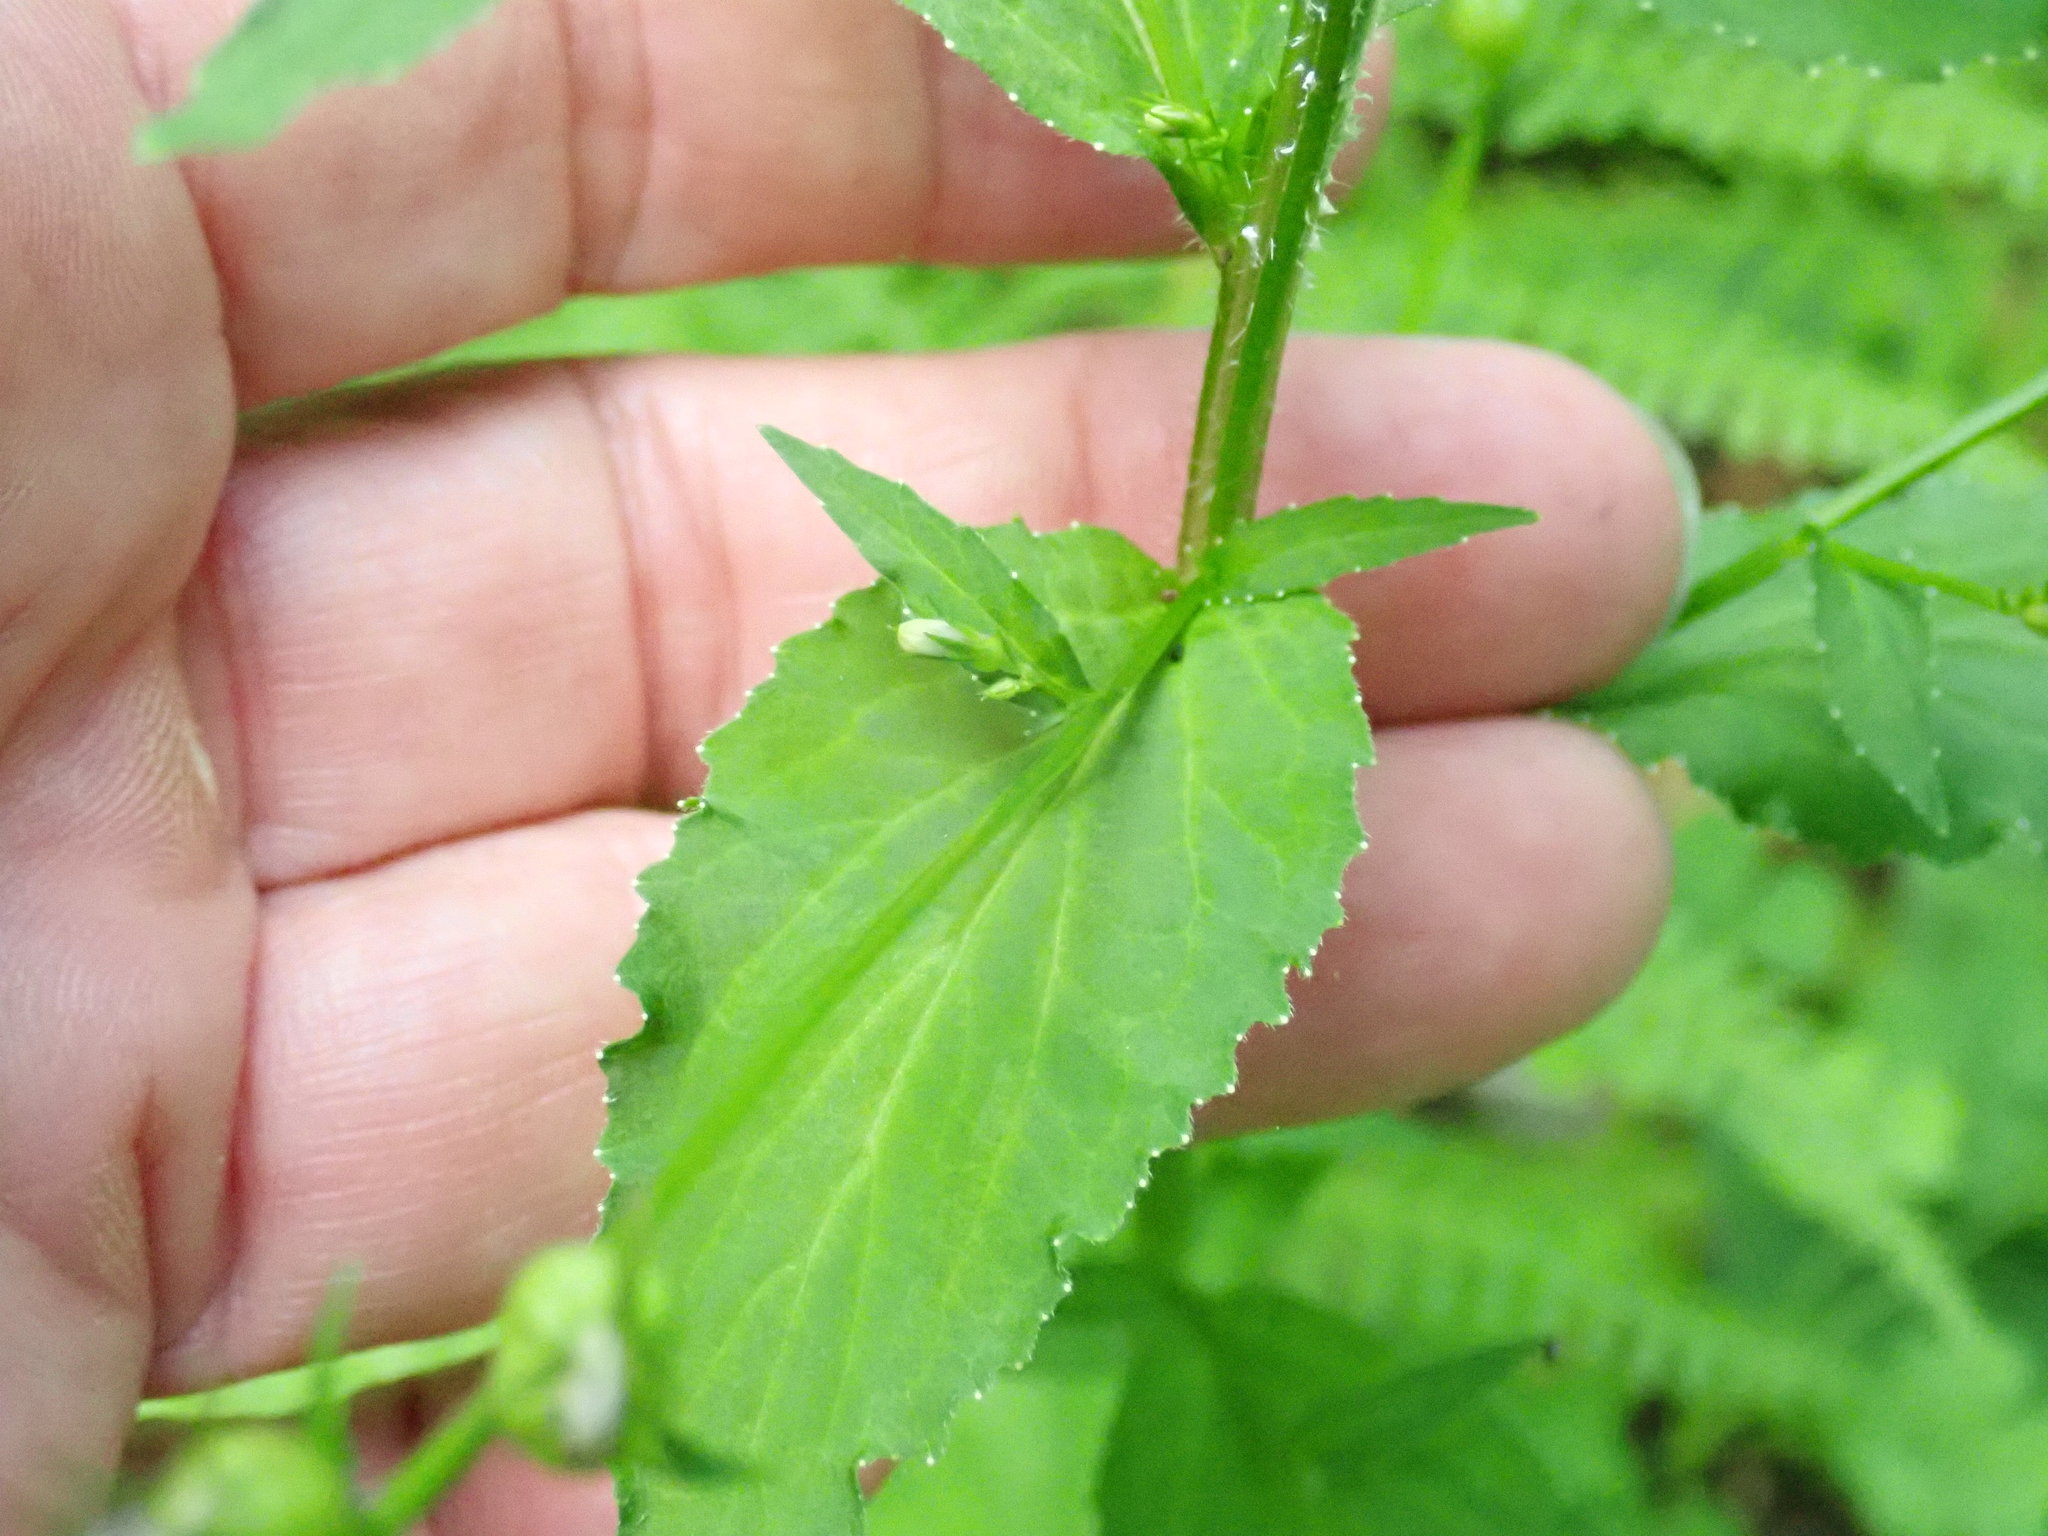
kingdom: Plantae
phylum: Tracheophyta
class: Magnoliopsida
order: Asterales
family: Campanulaceae
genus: Lobelia
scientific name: Lobelia inflata
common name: Indian tobacco
